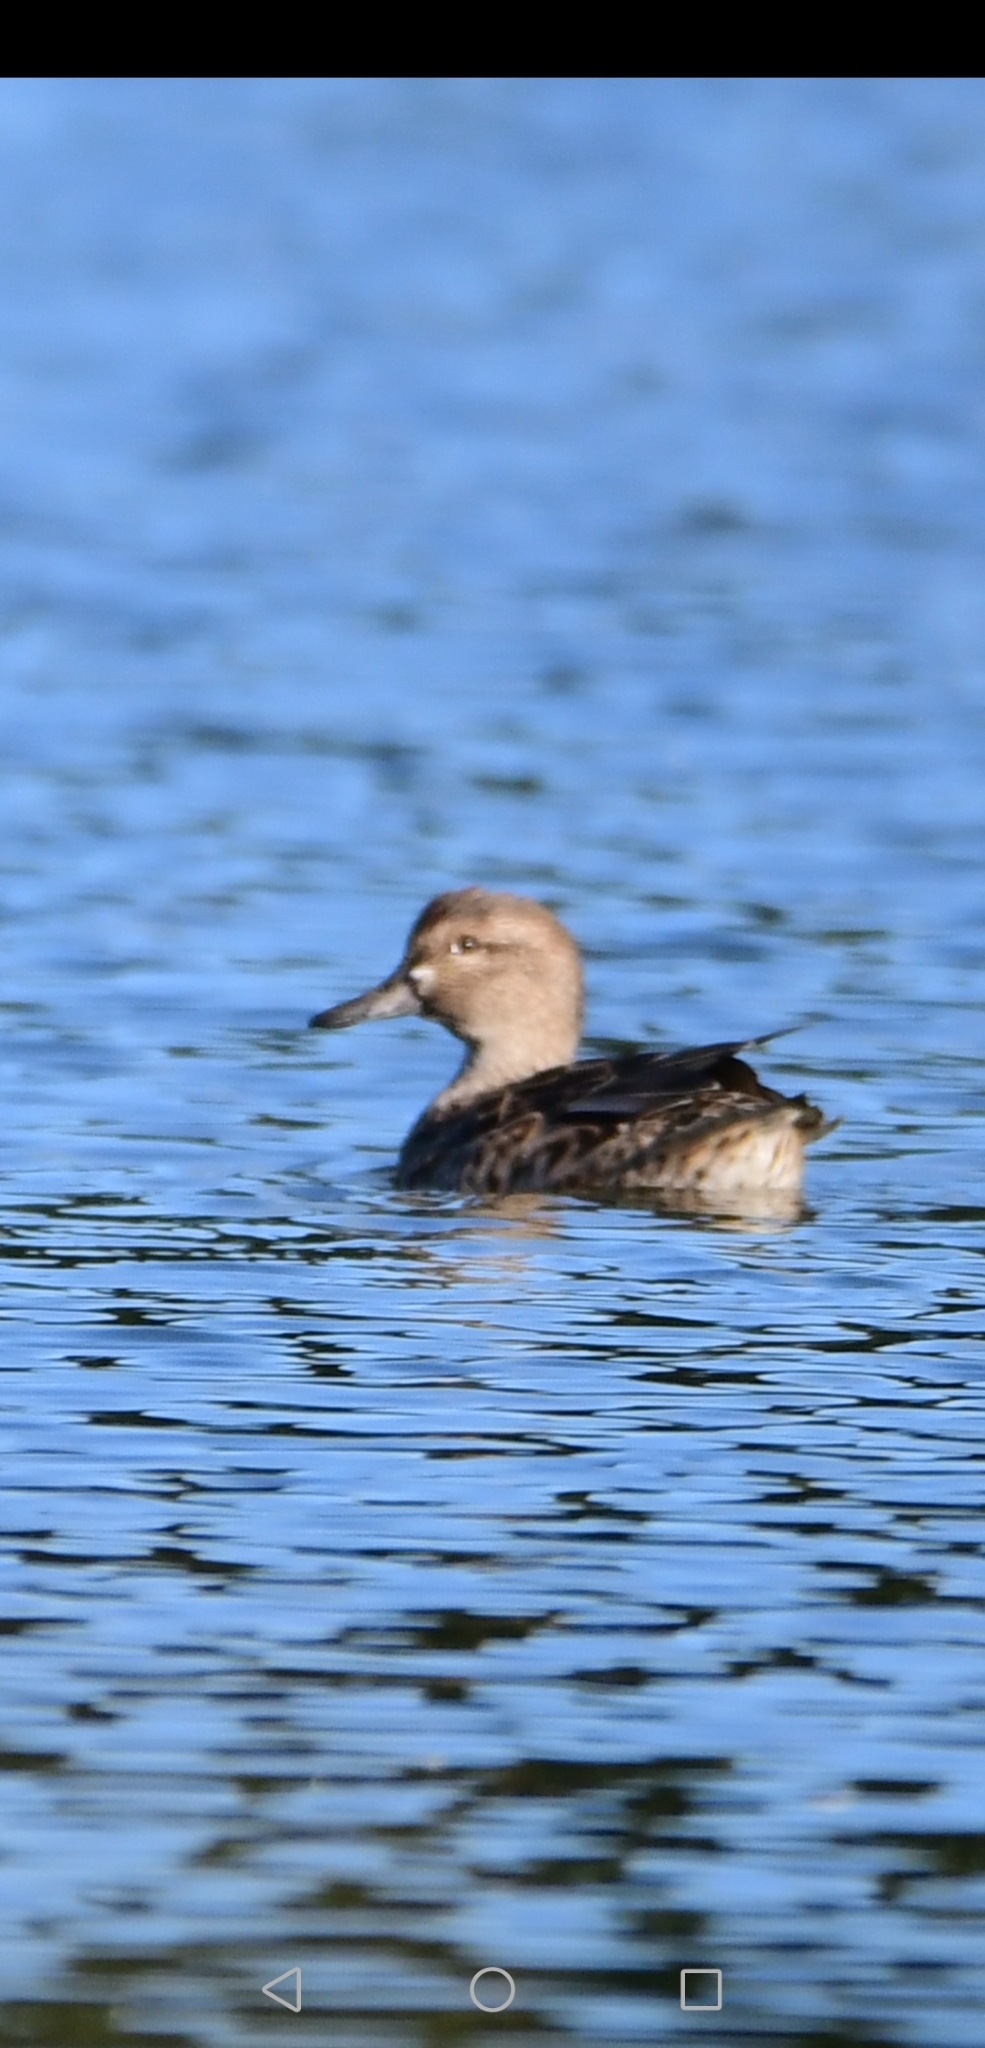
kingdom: Animalia
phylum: Chordata
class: Aves
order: Anseriformes
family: Anatidae
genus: Anas
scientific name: Anas crecca
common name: Eurasian teal
